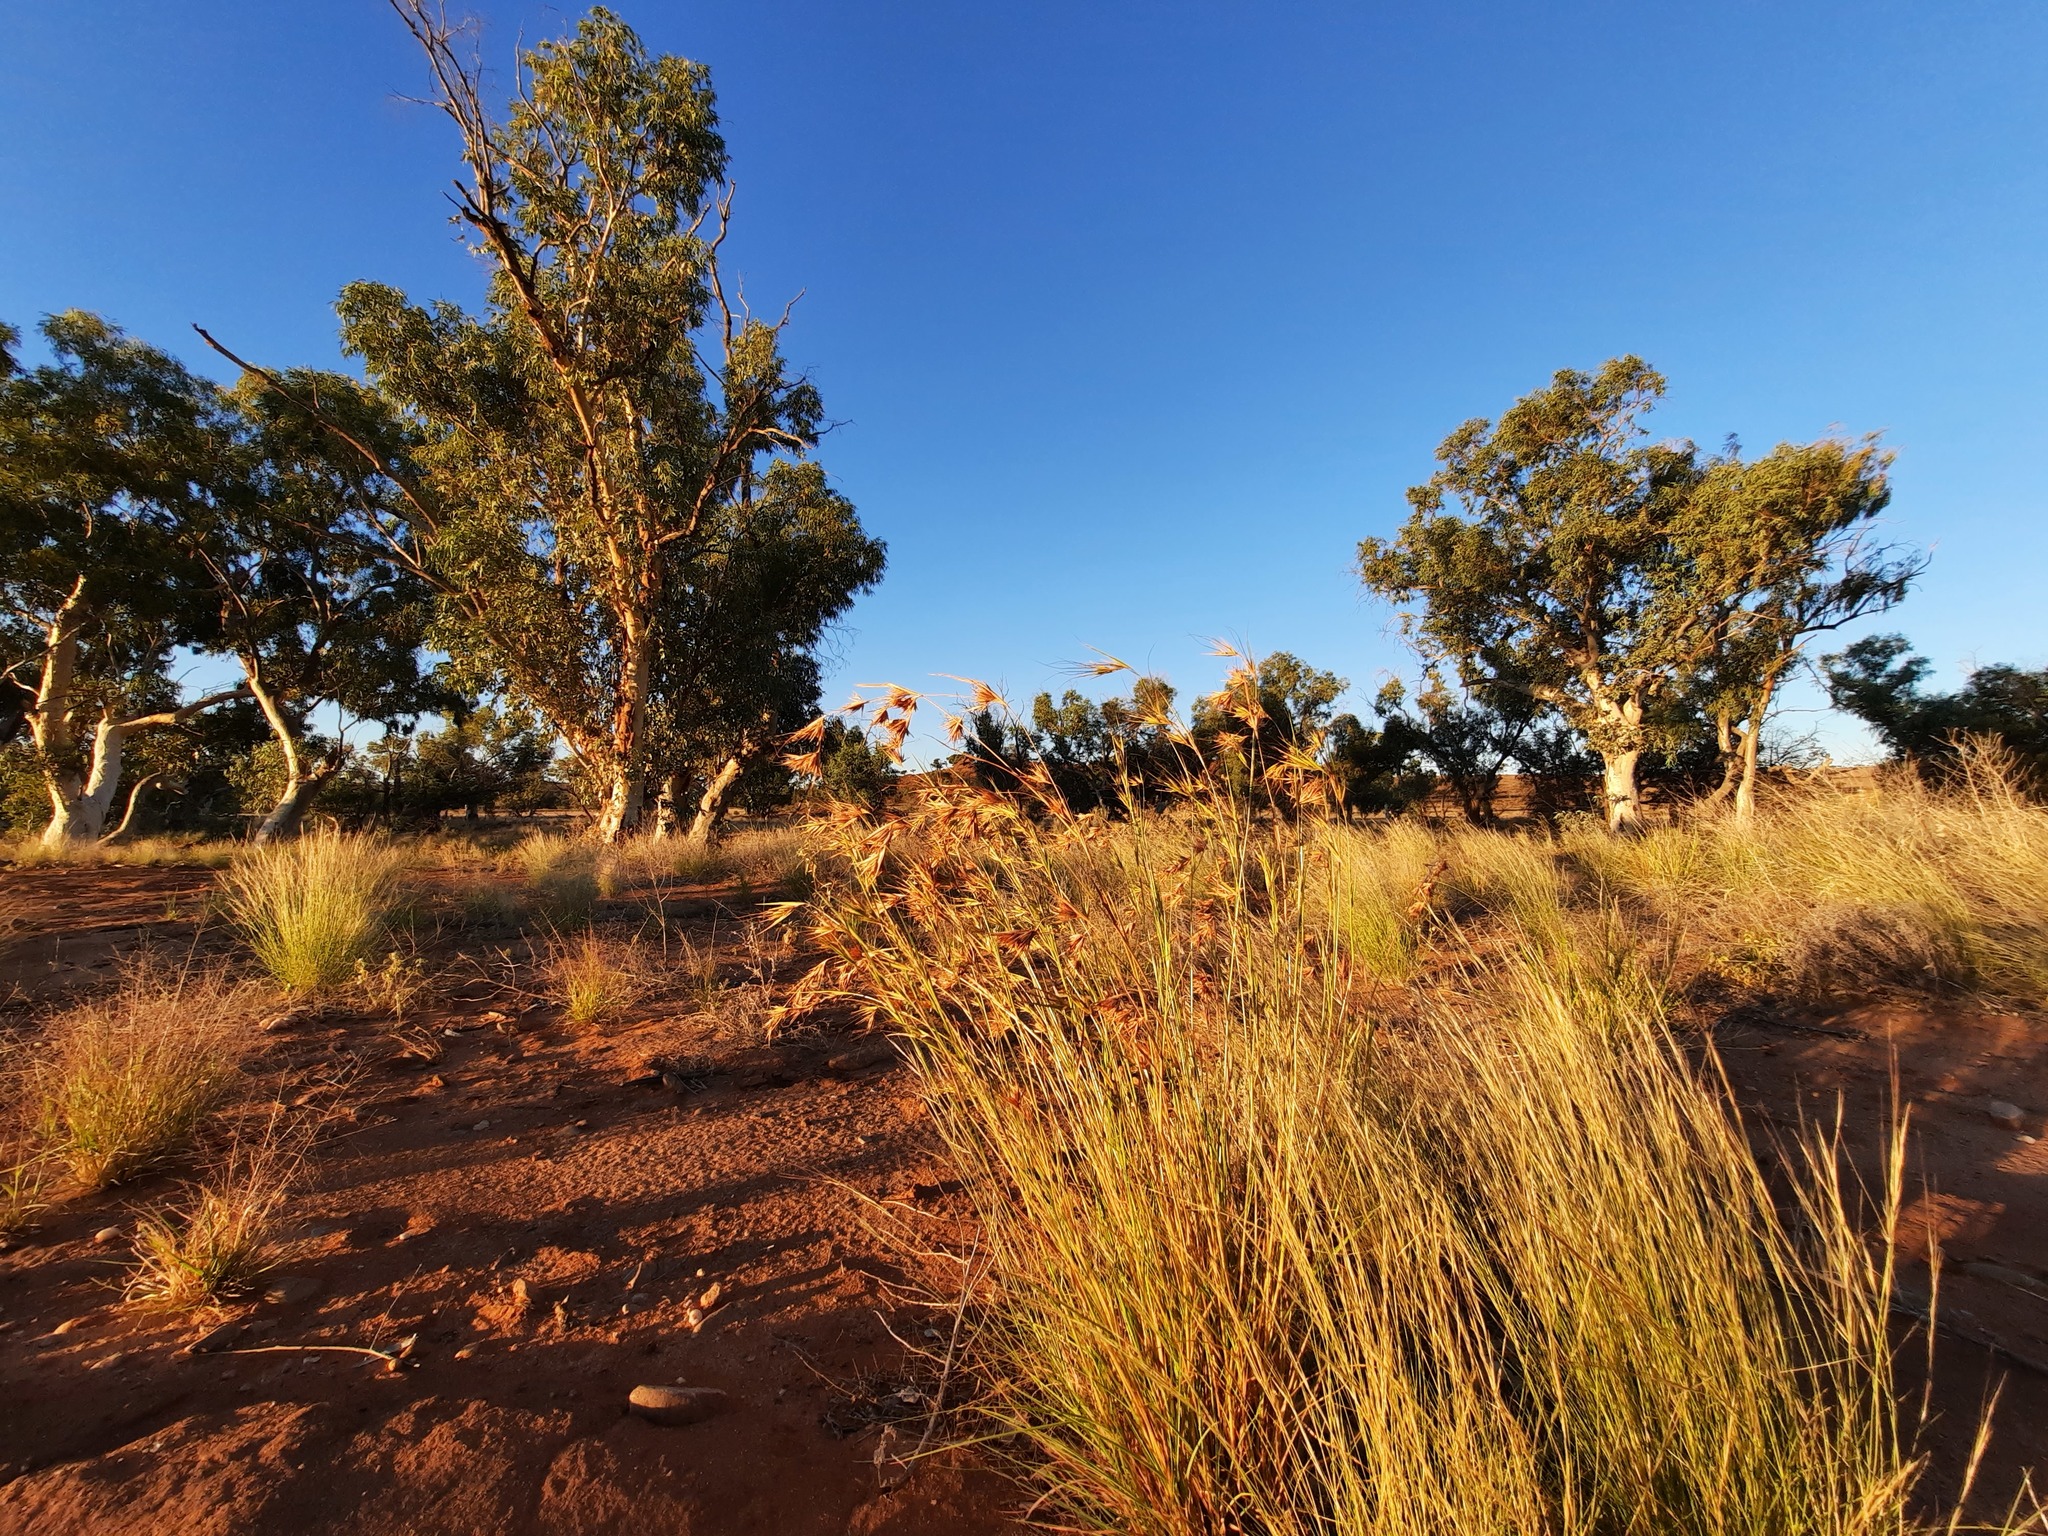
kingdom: Plantae
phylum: Tracheophyta
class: Liliopsida
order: Poales
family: Poaceae
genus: Themeda
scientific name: Themeda triandra
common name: Kangaroo grass
